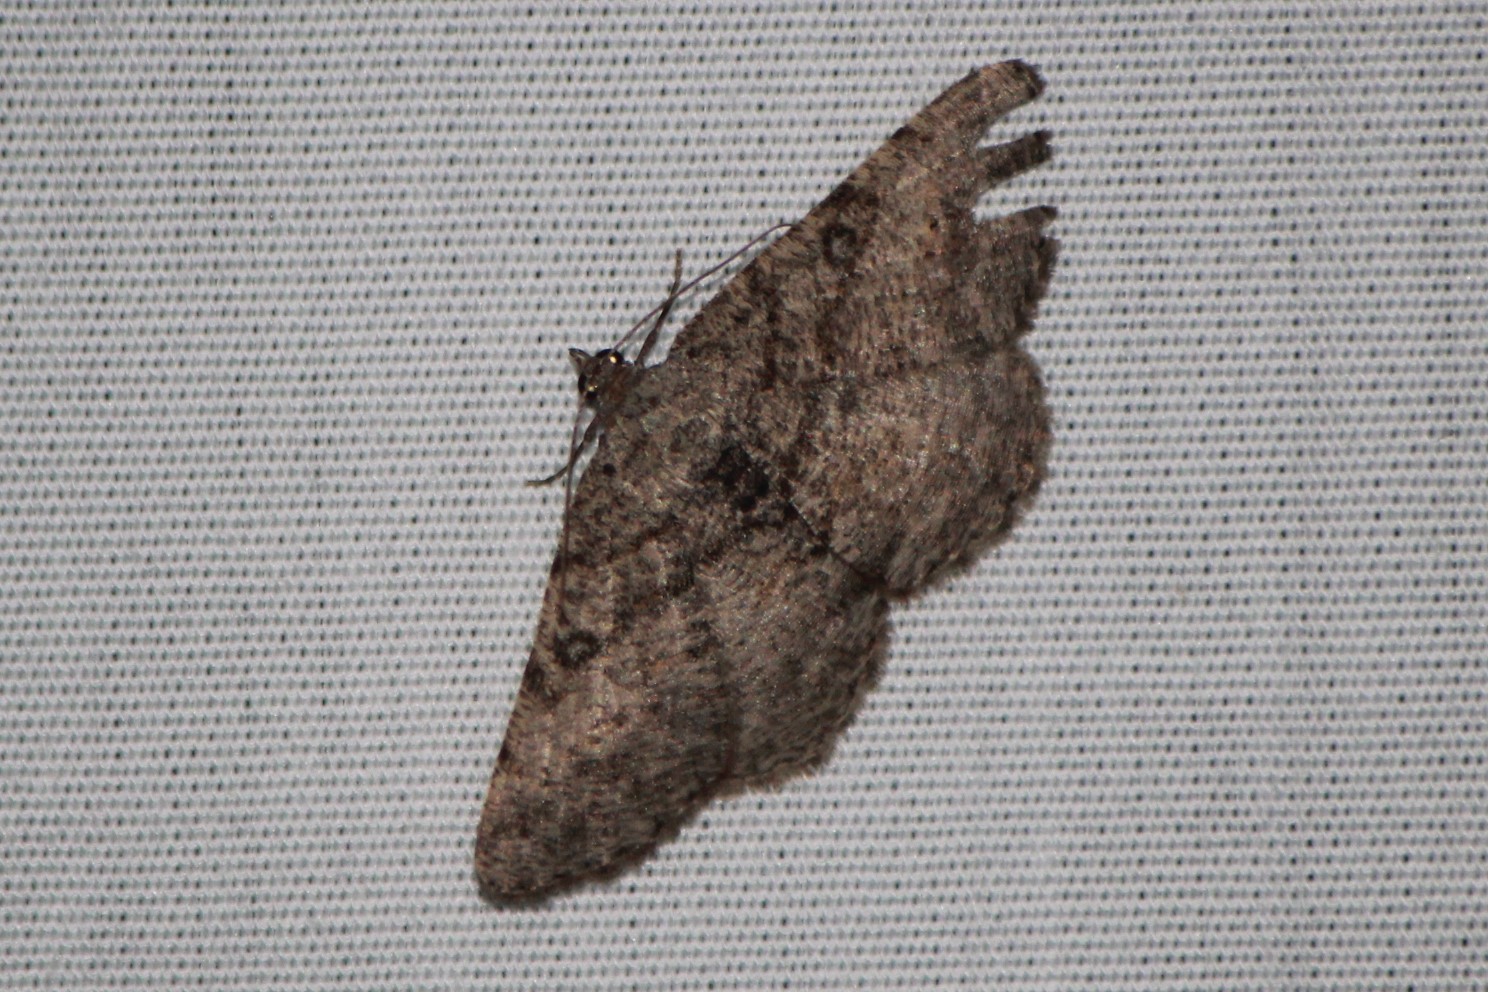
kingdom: Animalia
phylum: Arthropoda
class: Insecta
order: Lepidoptera
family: Geometridae
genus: Digrammia
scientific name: Digrammia gnophosaria
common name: Hollow-spotted angle
